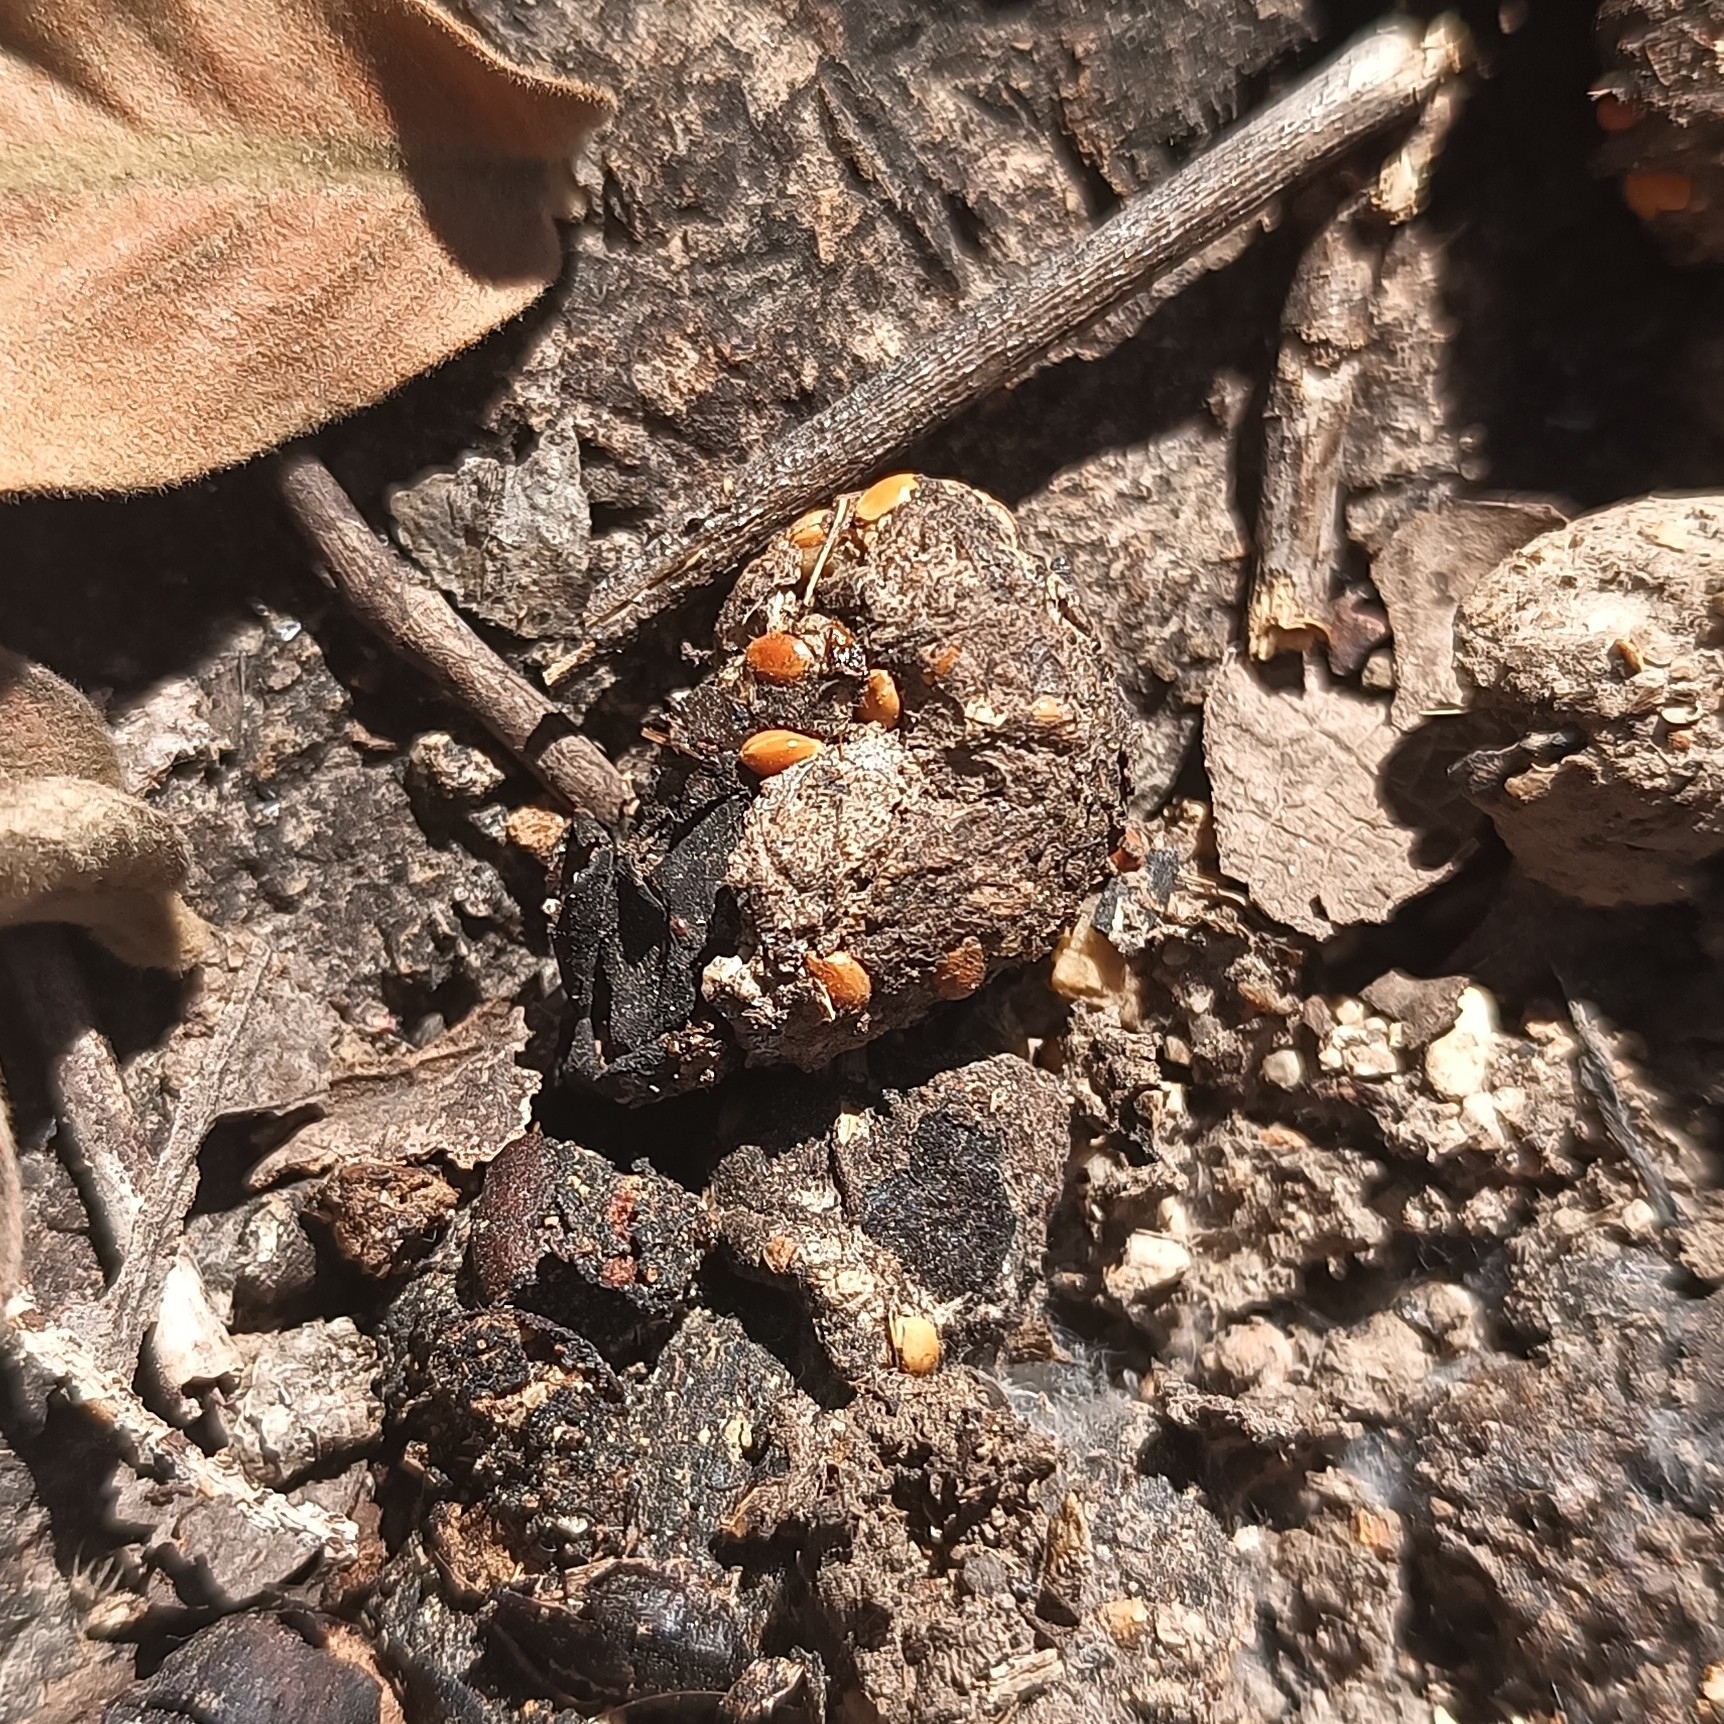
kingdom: Animalia
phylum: Chordata
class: Mammalia
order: Carnivora
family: Procyonidae
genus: Bassariscus
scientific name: Bassariscus astutus
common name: Ringtail
